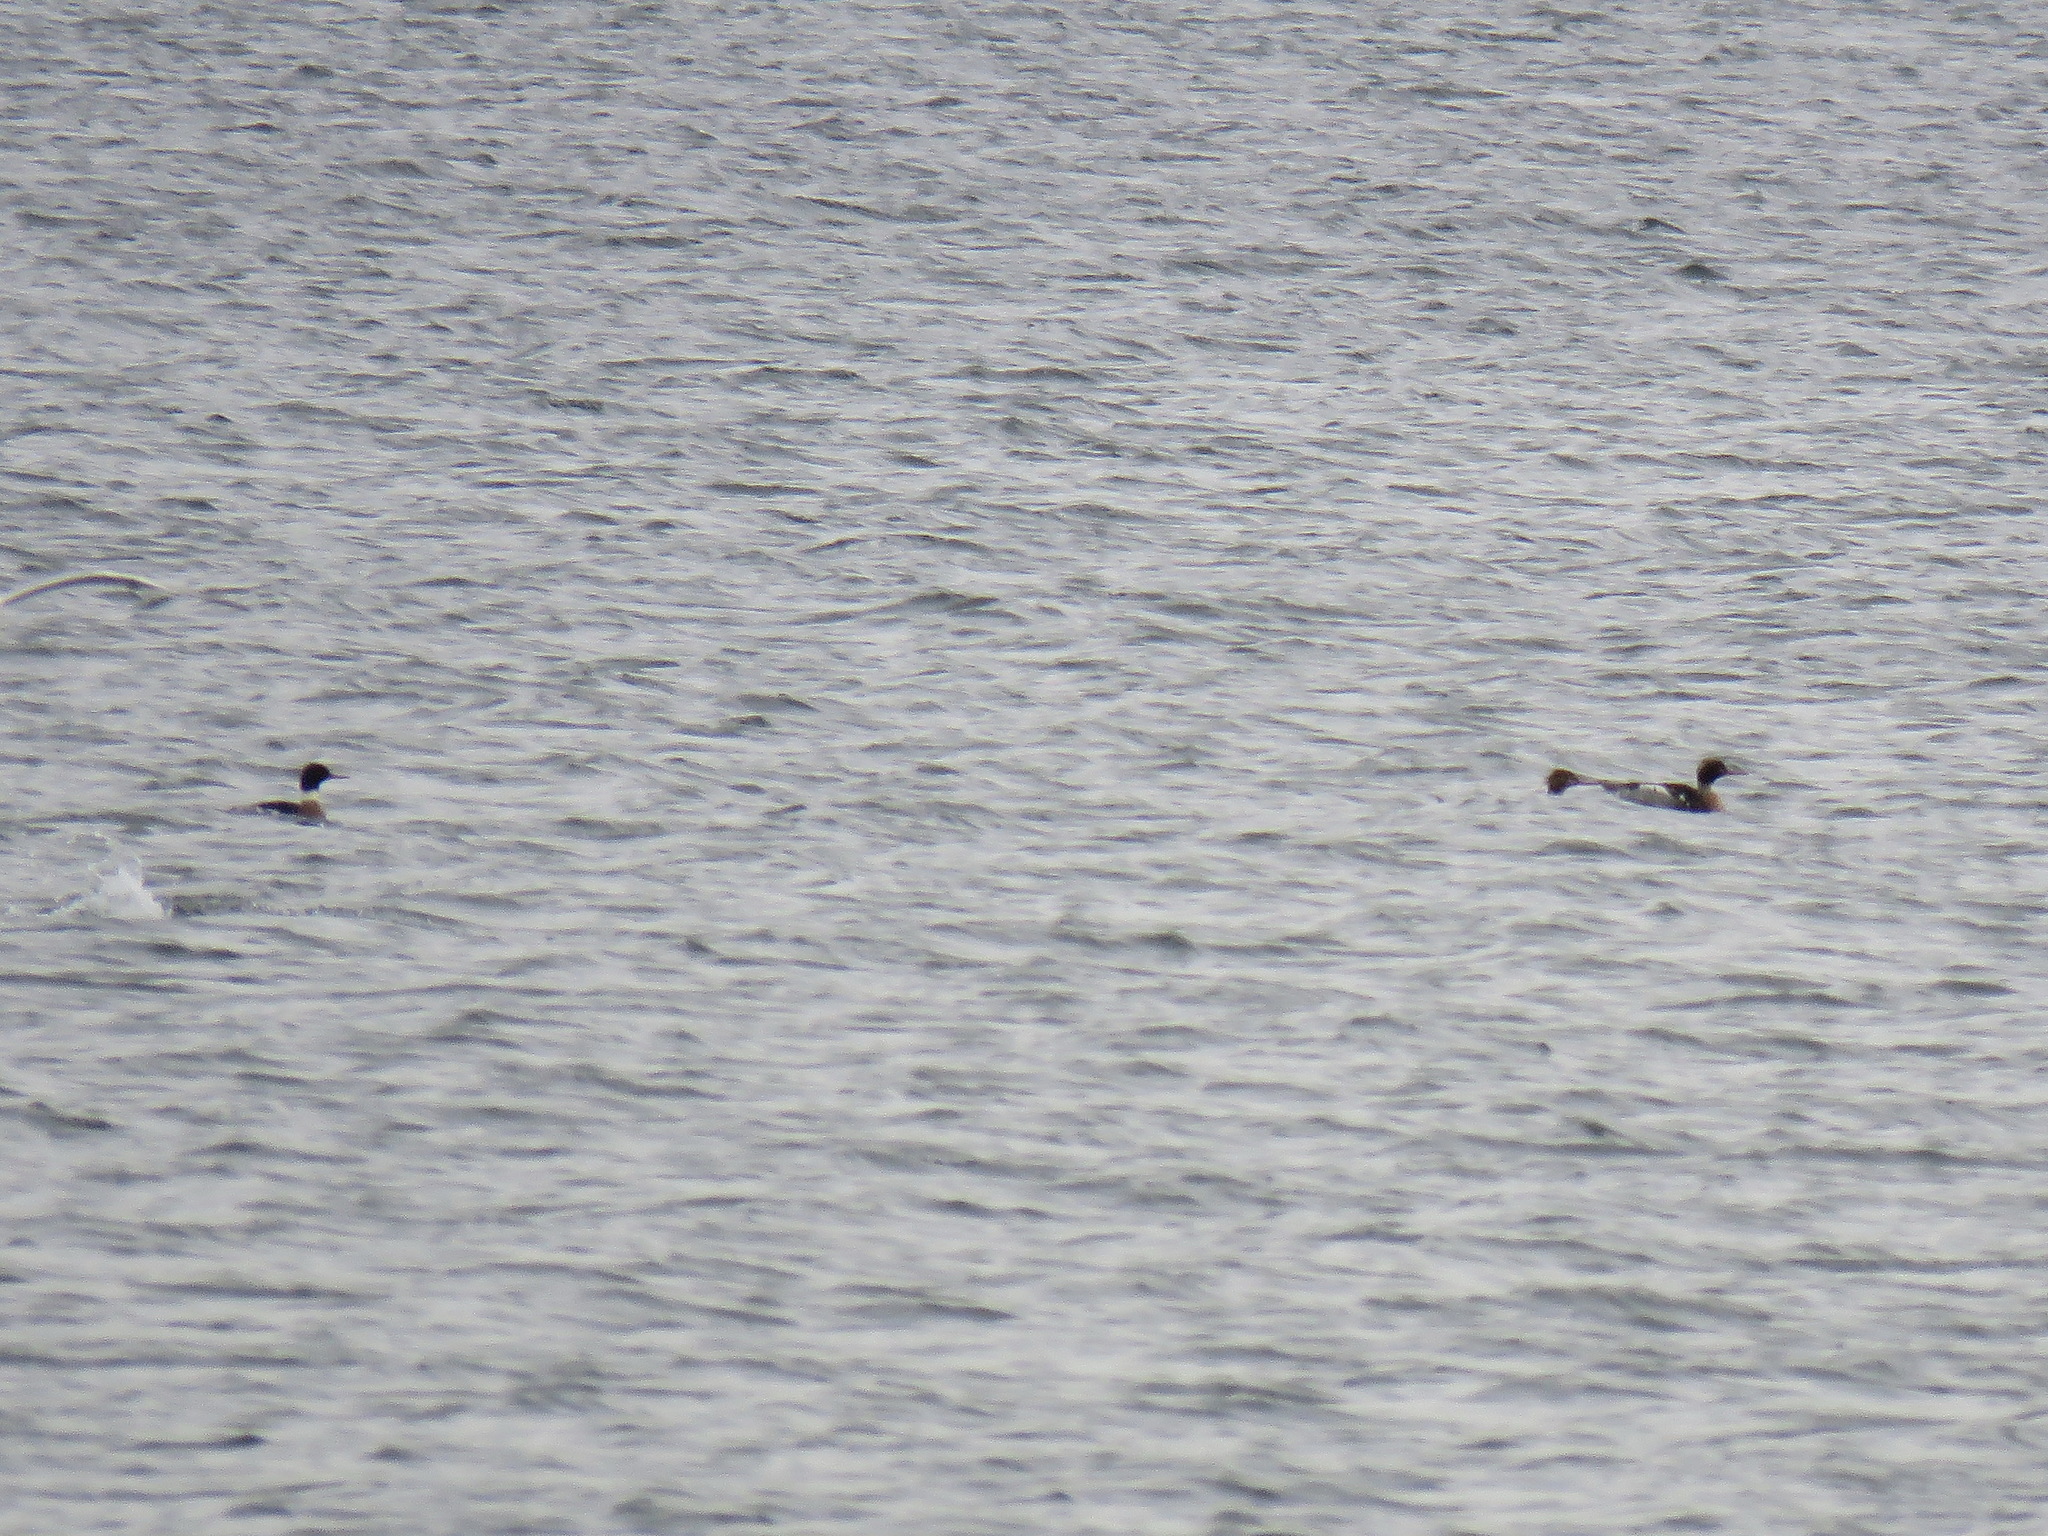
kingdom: Animalia
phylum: Chordata
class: Aves
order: Anseriformes
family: Anatidae
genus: Mergus
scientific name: Mergus serrator
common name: Red-breasted merganser
